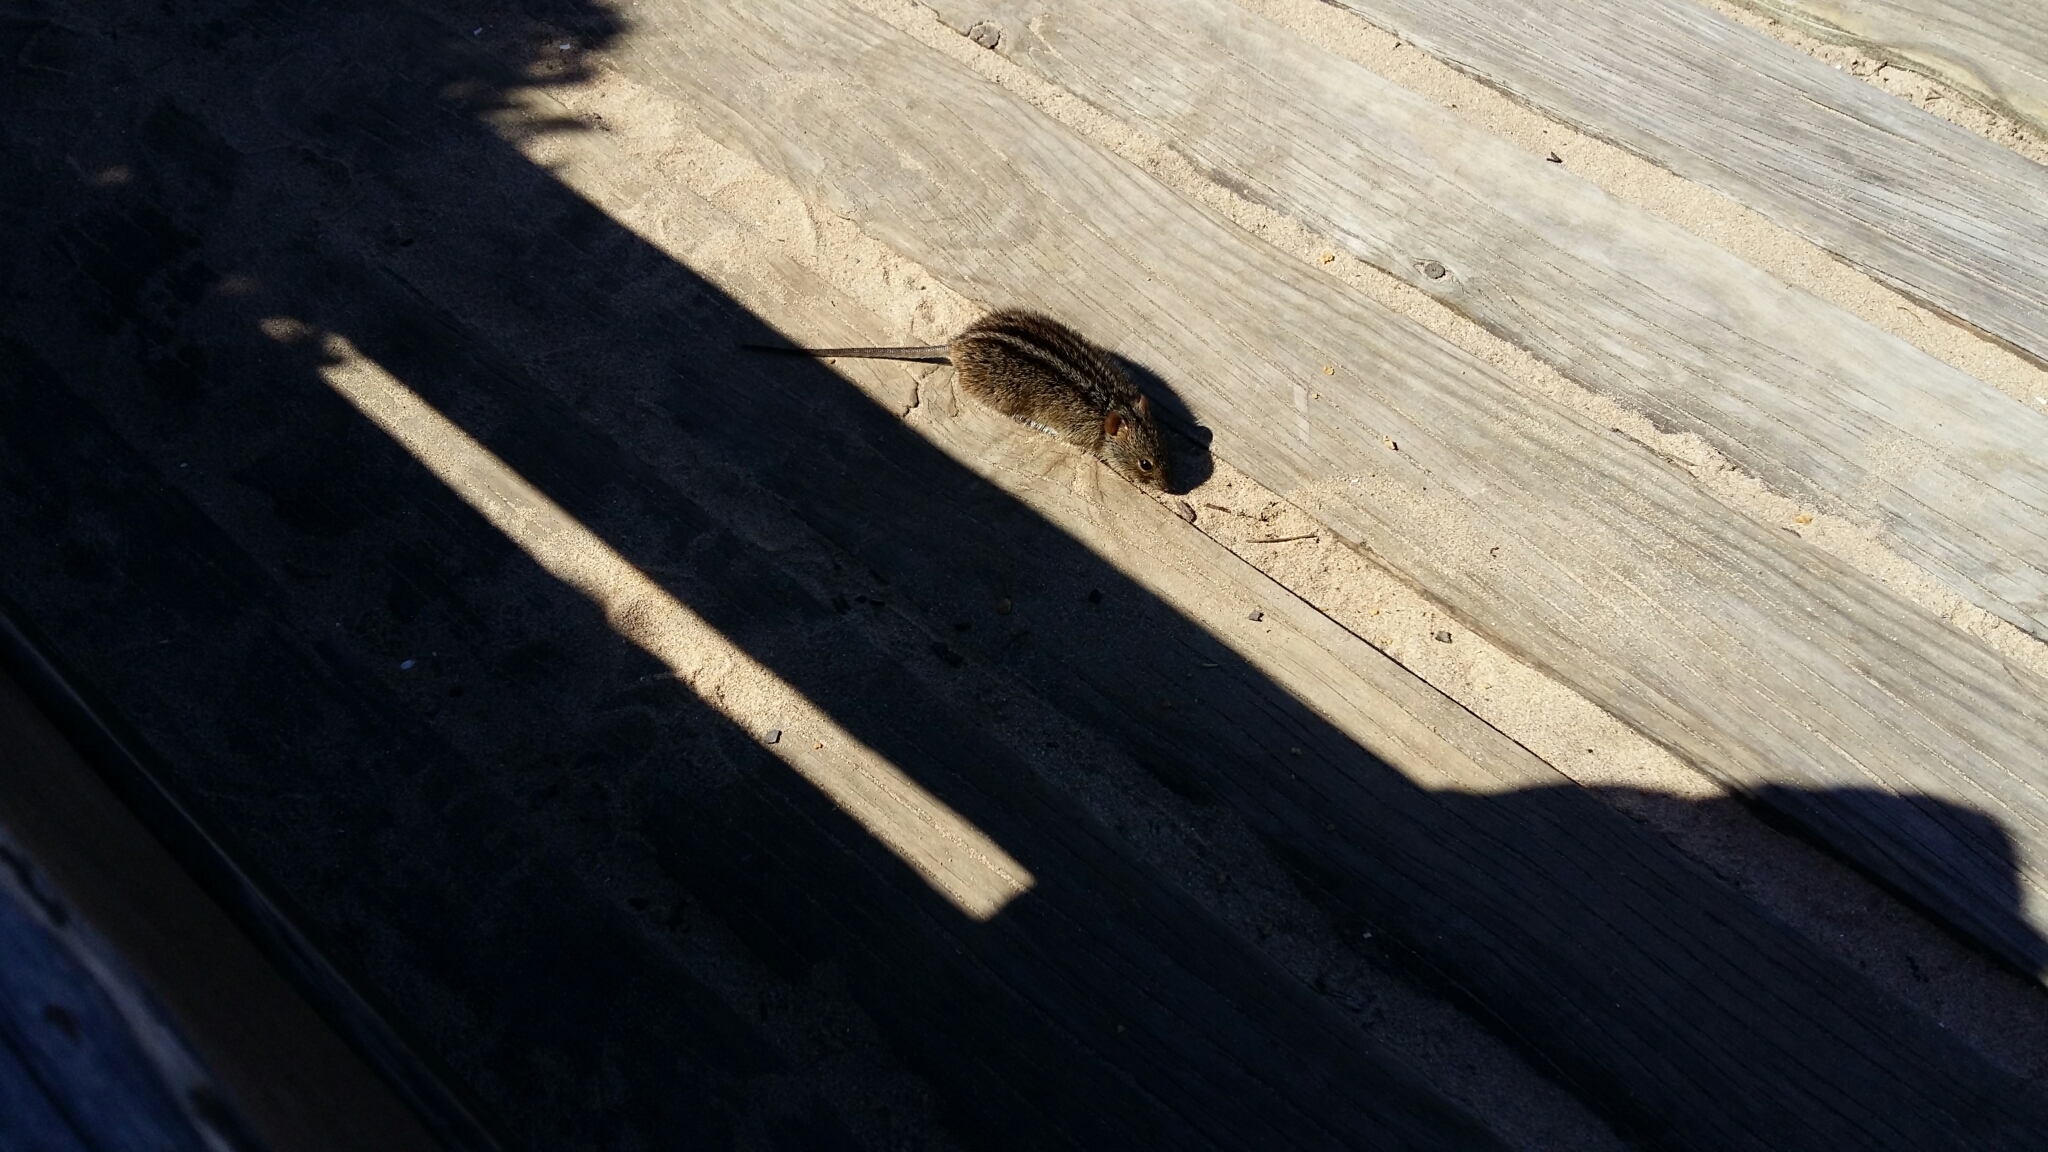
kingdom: Animalia
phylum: Chordata
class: Mammalia
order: Rodentia
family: Muridae
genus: Rhabdomys
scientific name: Rhabdomys pumilio
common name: Xeric four-striped grass rat
